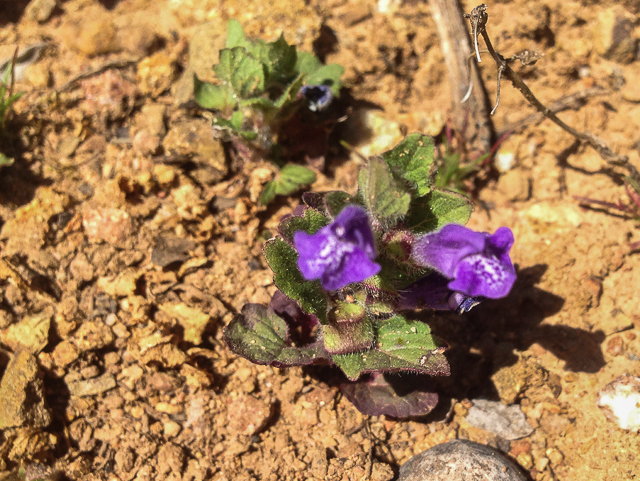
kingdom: Plantae
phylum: Tracheophyta
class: Magnoliopsida
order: Lamiales
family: Lamiaceae
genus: Scutellaria
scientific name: Scutellaria tuberosa
